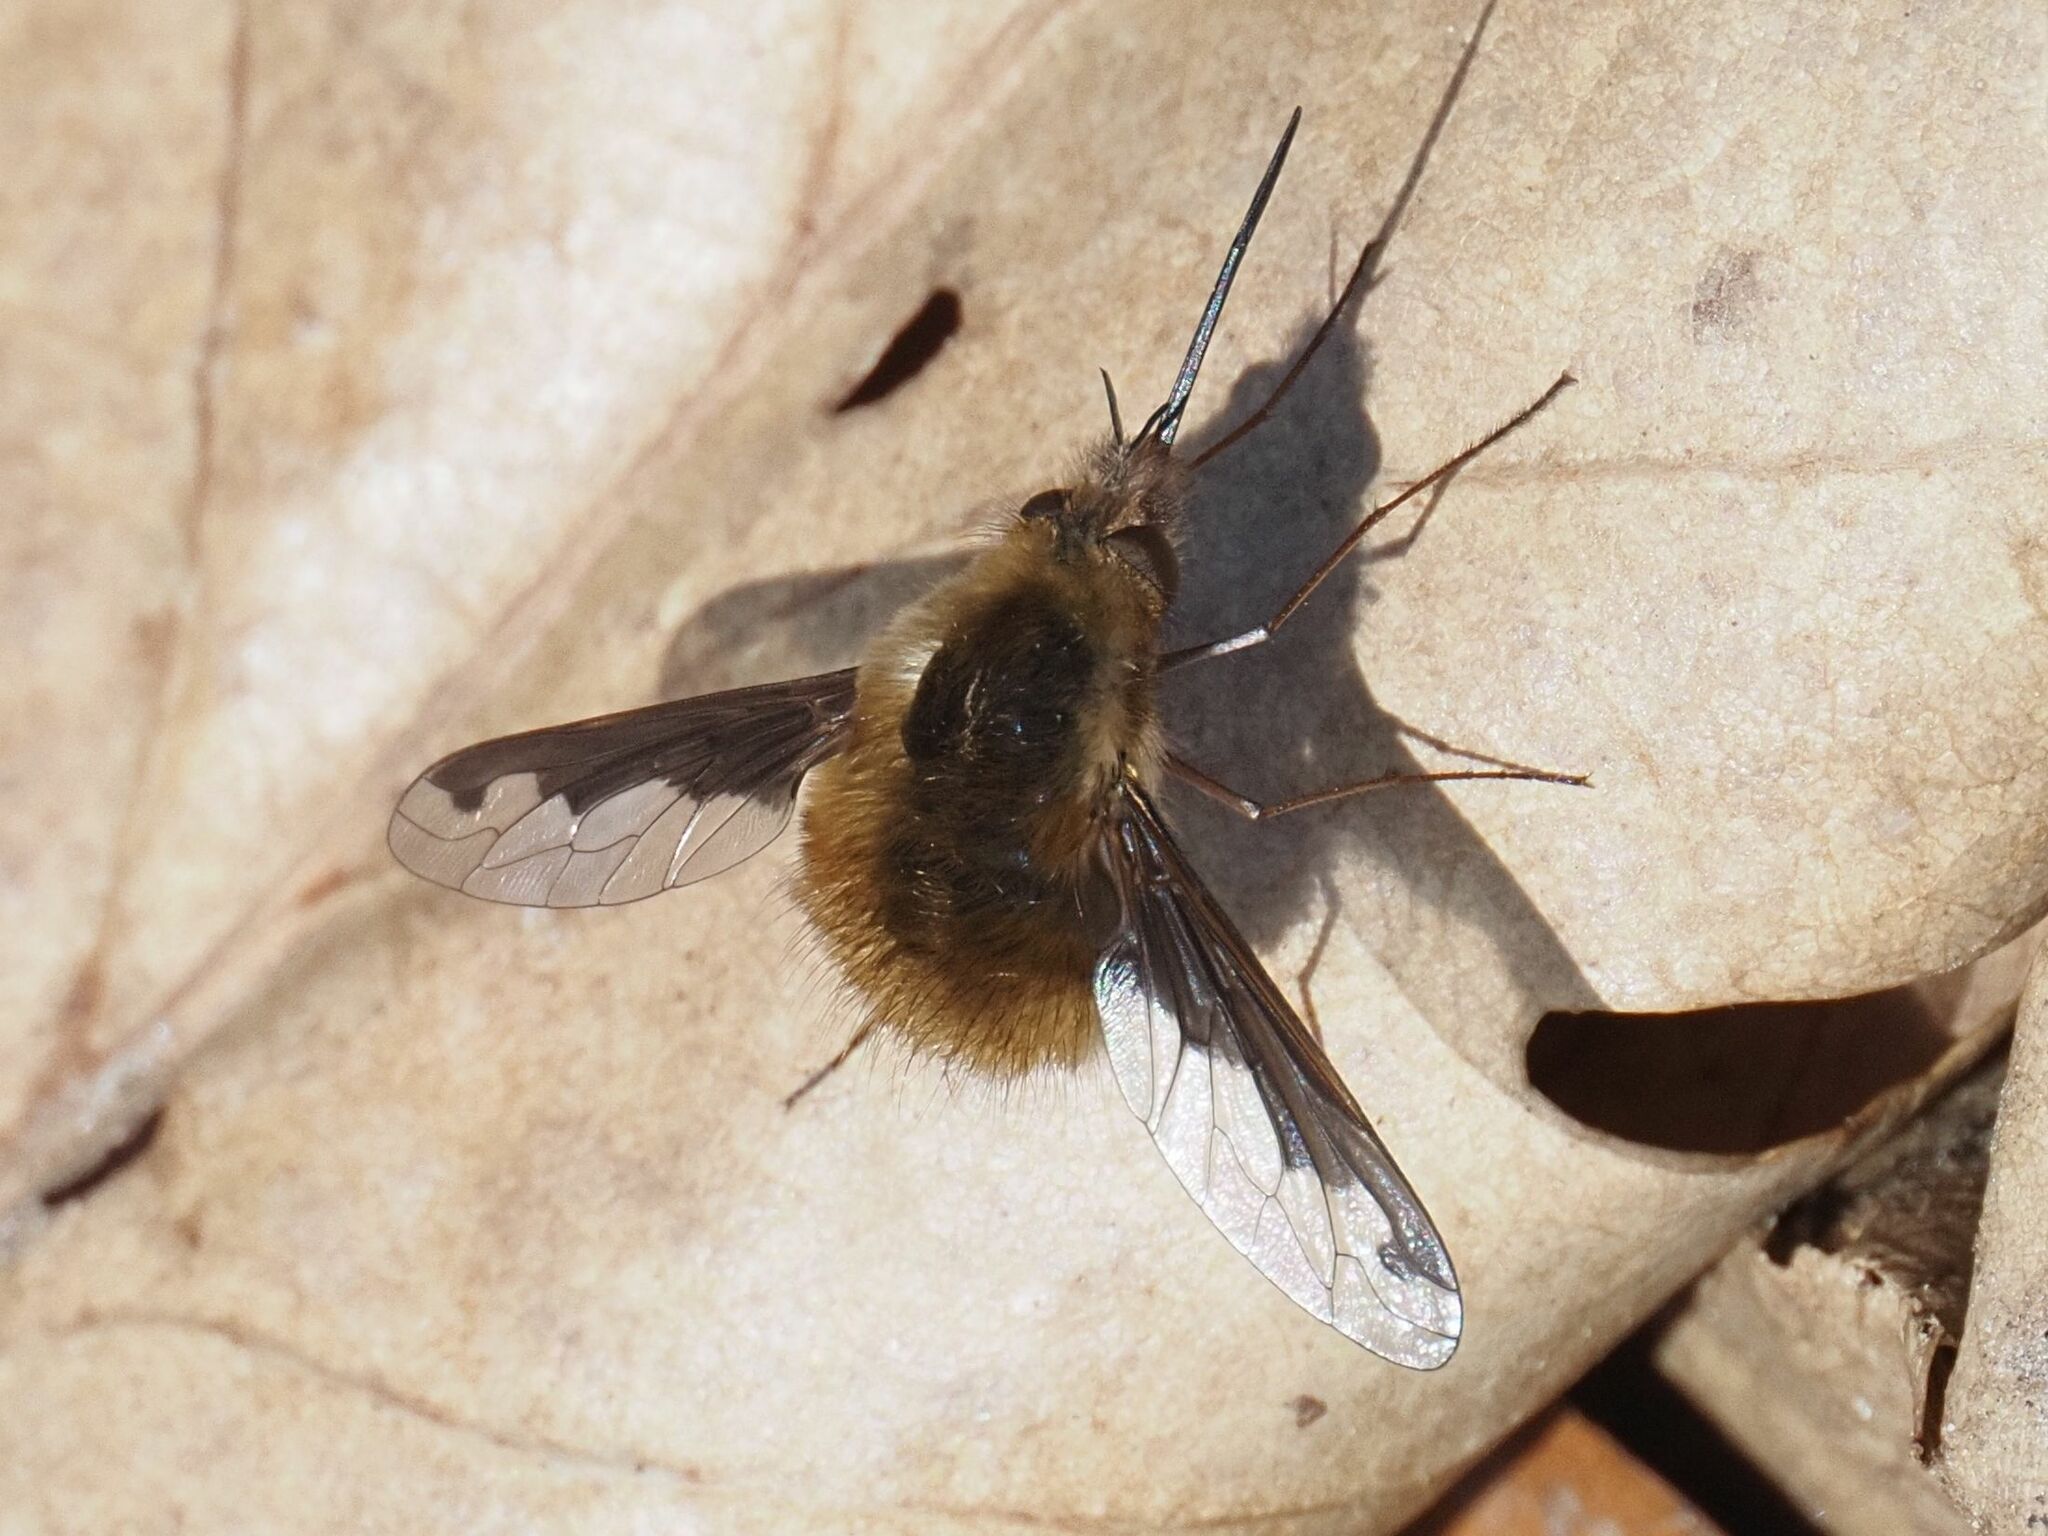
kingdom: Animalia
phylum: Arthropoda
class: Insecta
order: Diptera
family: Bombyliidae
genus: Bombylius
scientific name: Bombylius major
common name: Bee fly
